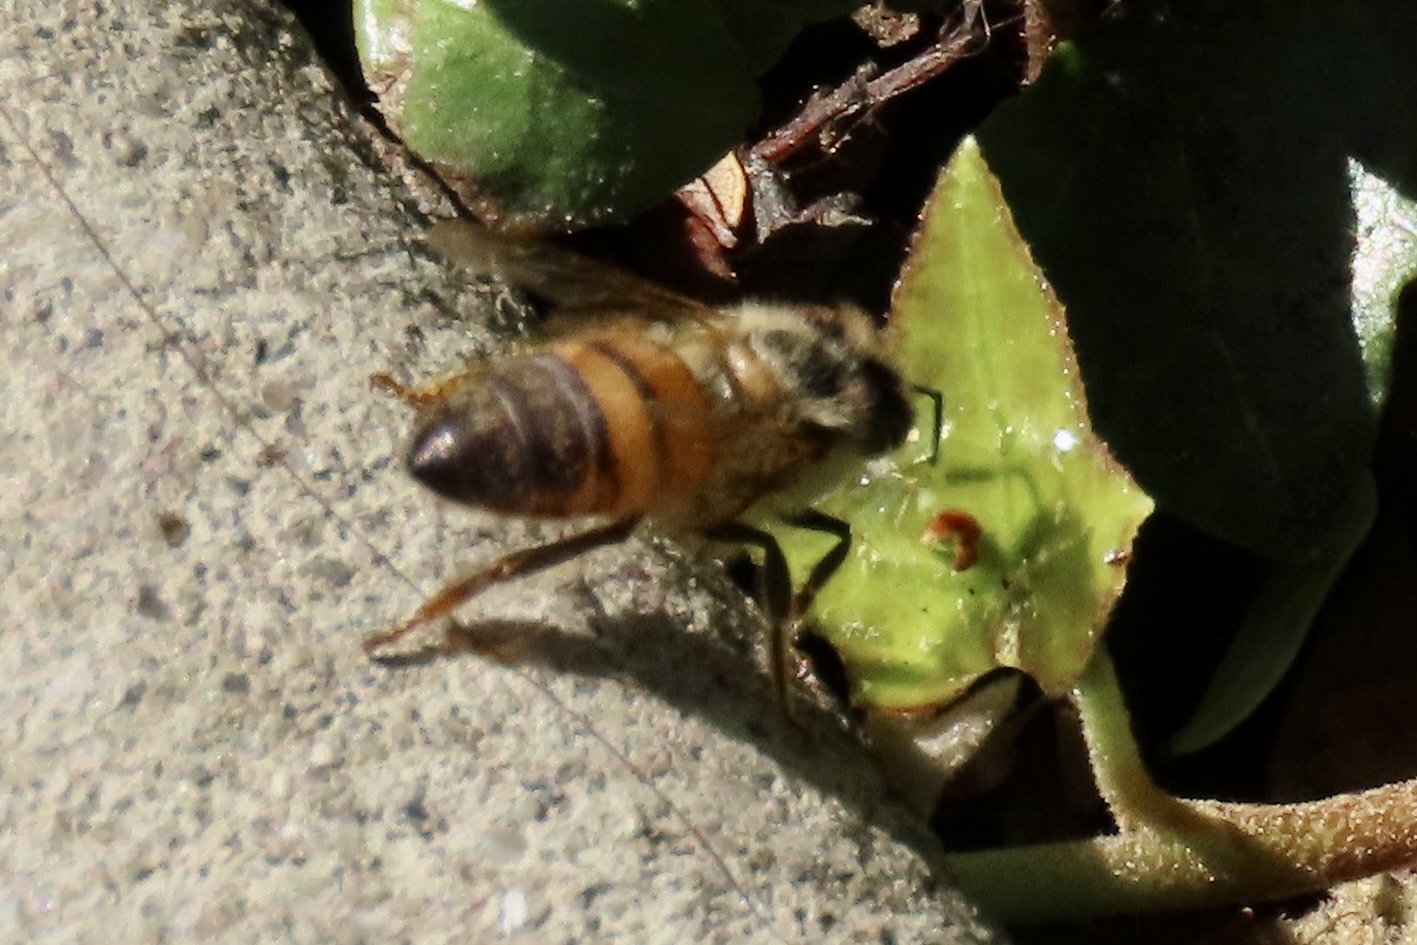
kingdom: Animalia
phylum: Arthropoda
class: Insecta
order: Hymenoptera
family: Apidae
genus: Apis
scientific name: Apis mellifera
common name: Honey bee
